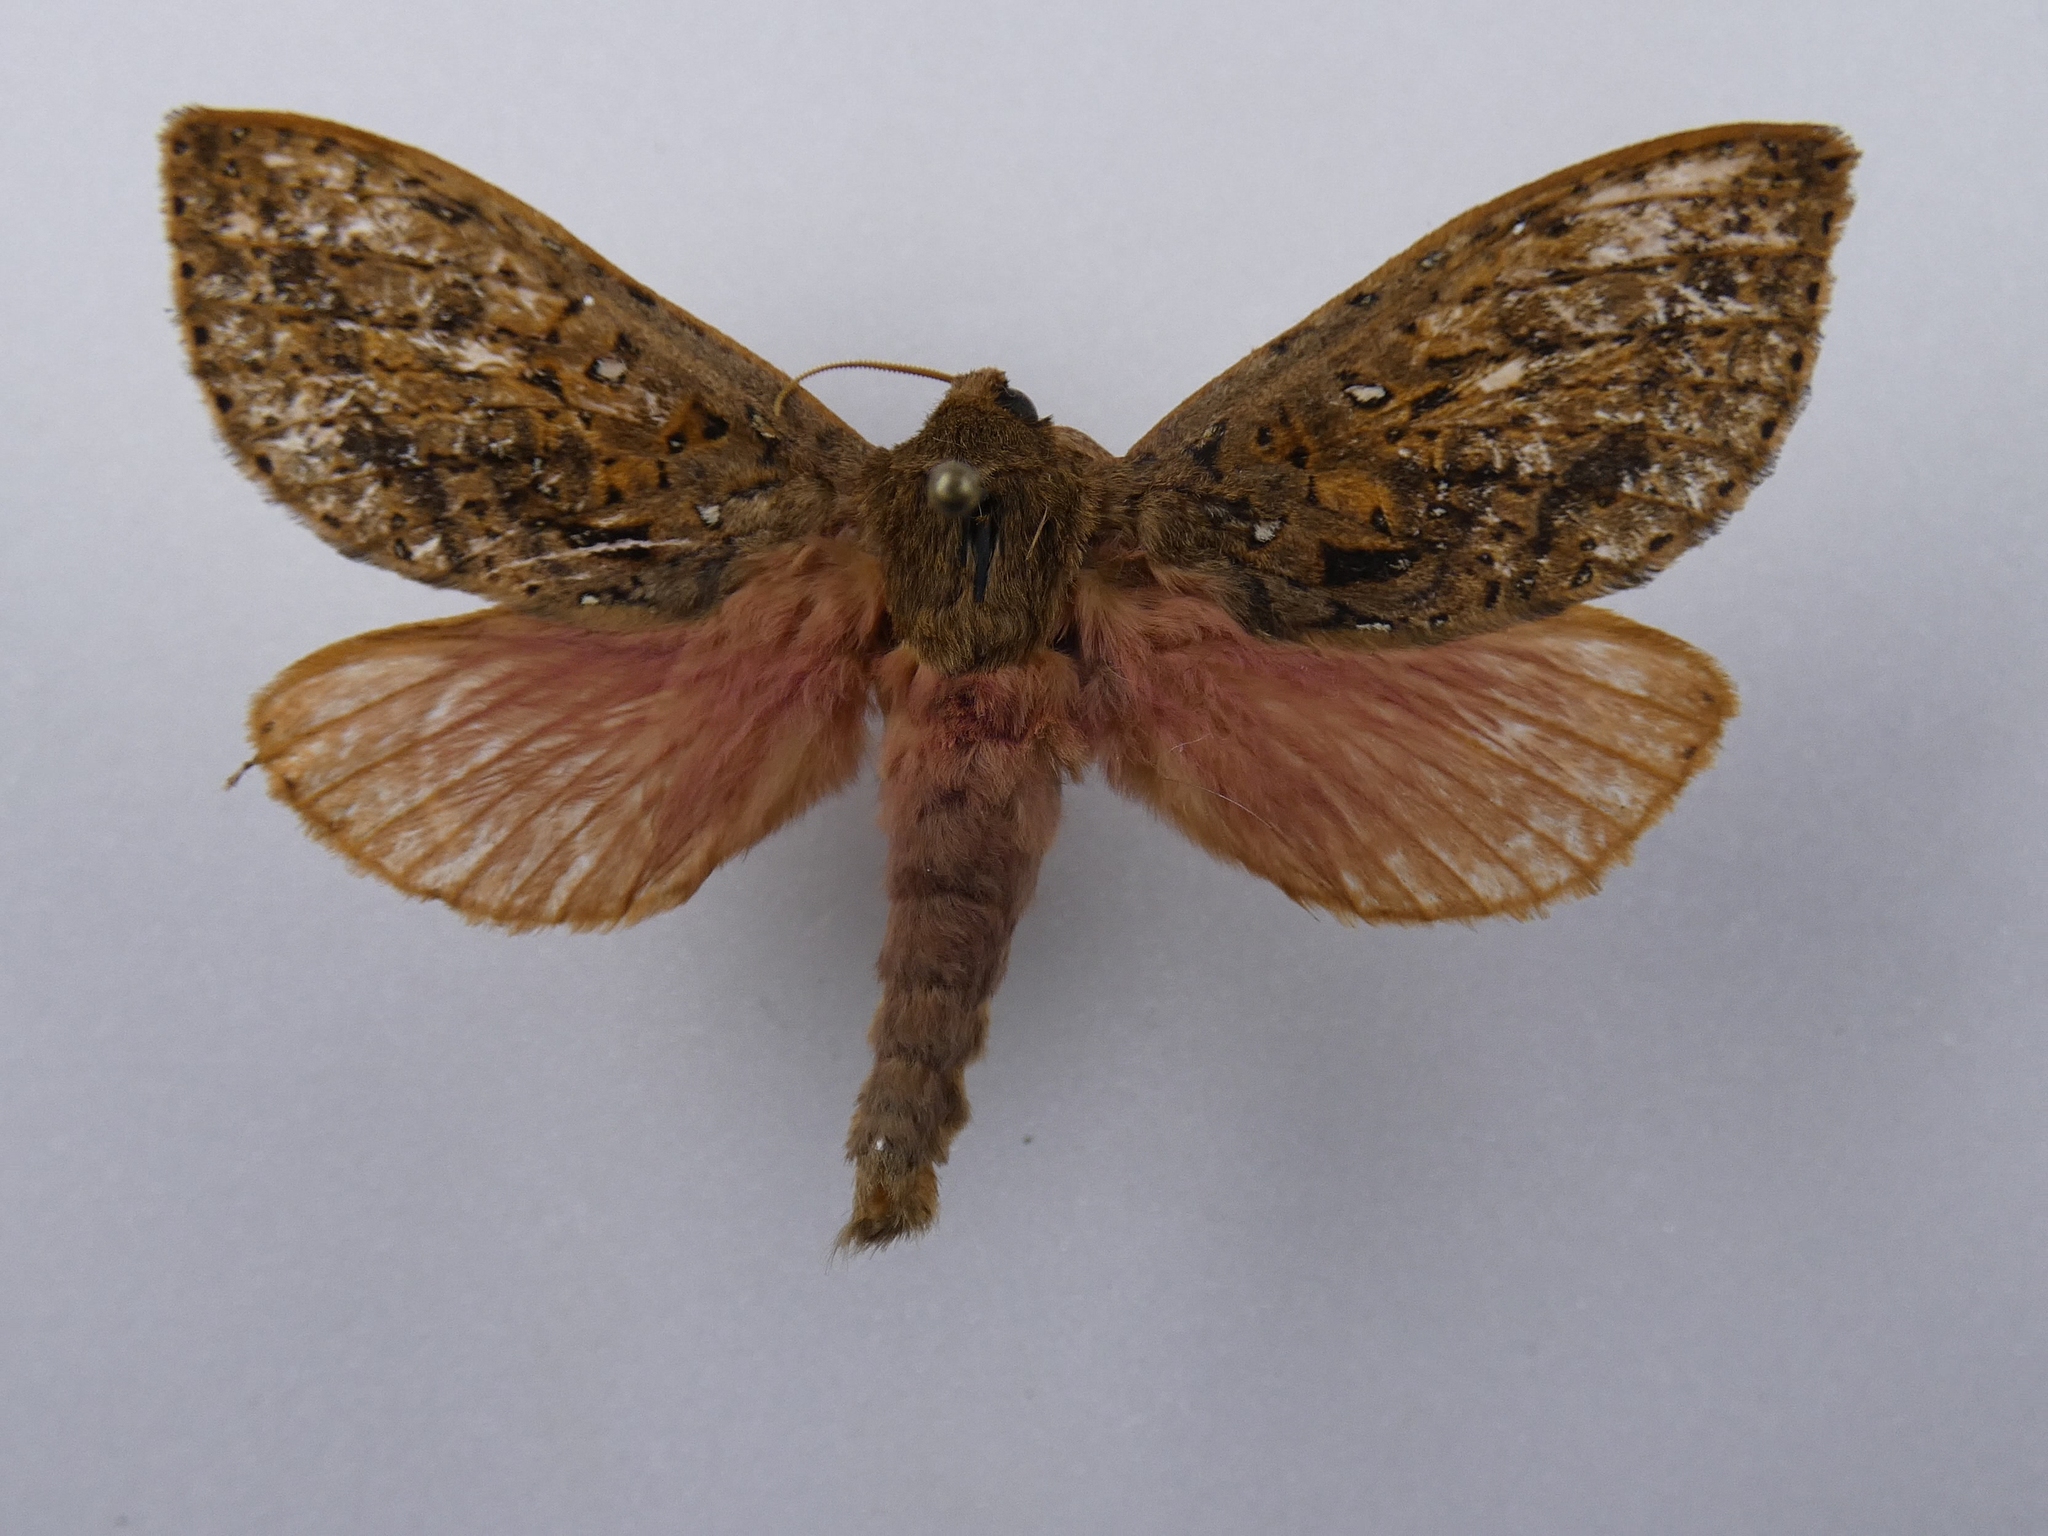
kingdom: Animalia
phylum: Arthropoda
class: Insecta
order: Lepidoptera
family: Hepialidae
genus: Dumbletonius
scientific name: Dumbletonius unimaculata
